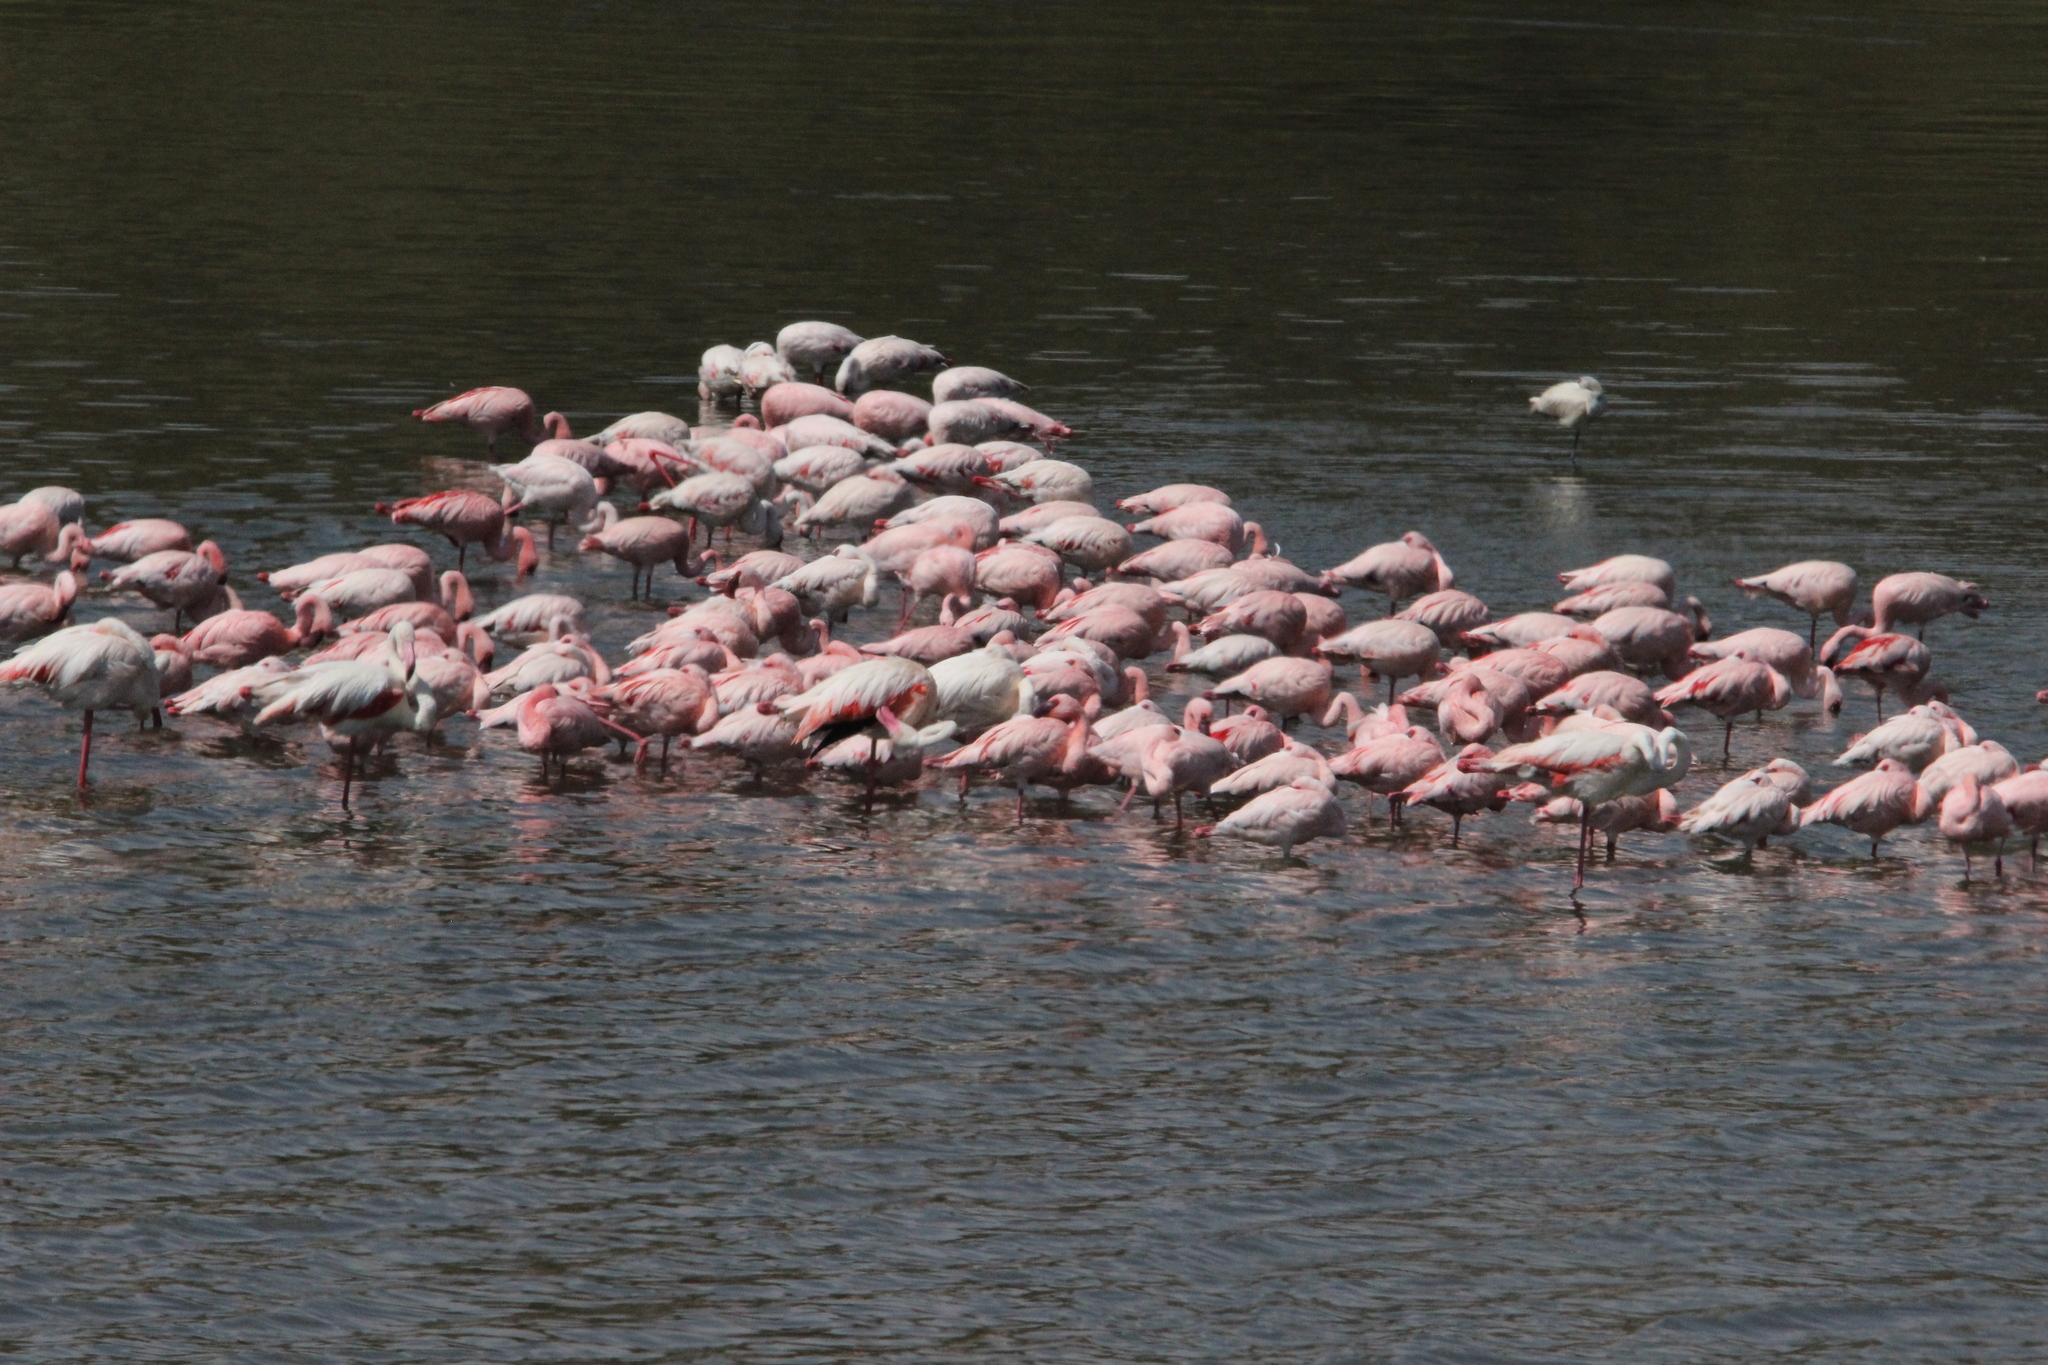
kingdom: Animalia
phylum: Chordata
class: Aves
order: Phoenicopteriformes
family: Phoenicopteridae
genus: Phoeniconaias
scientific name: Phoeniconaias minor
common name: Lesser flamingo
